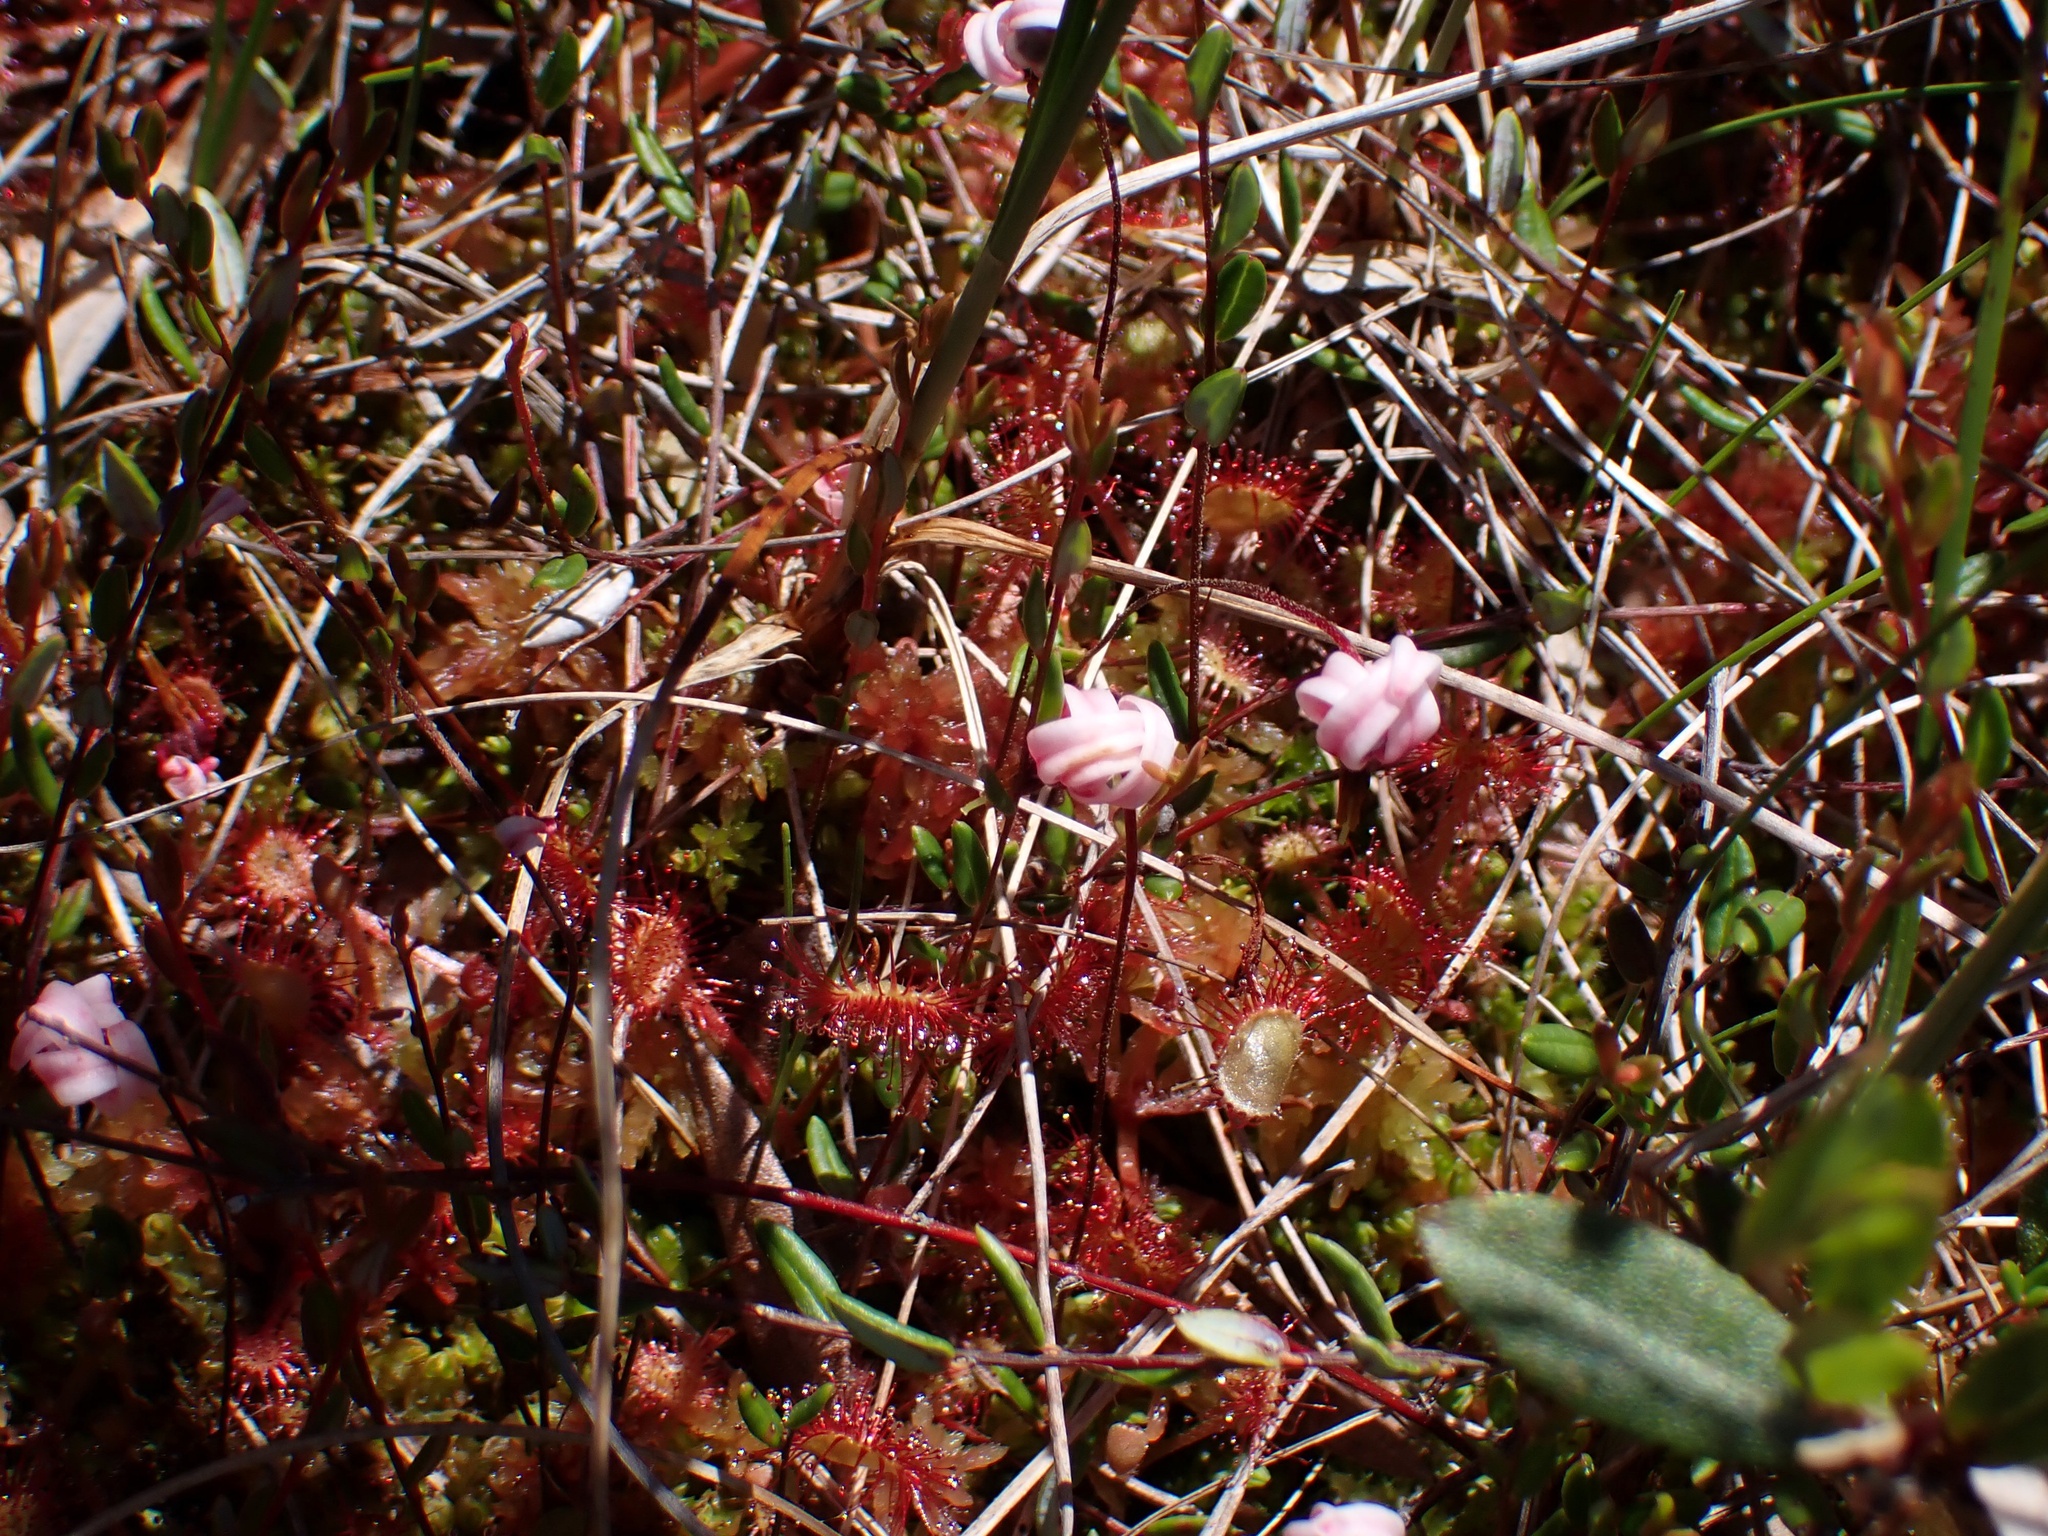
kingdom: Plantae
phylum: Tracheophyta
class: Magnoliopsida
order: Ericales
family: Ericaceae
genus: Vaccinium
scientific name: Vaccinium oxycoccos
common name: Cranberry
